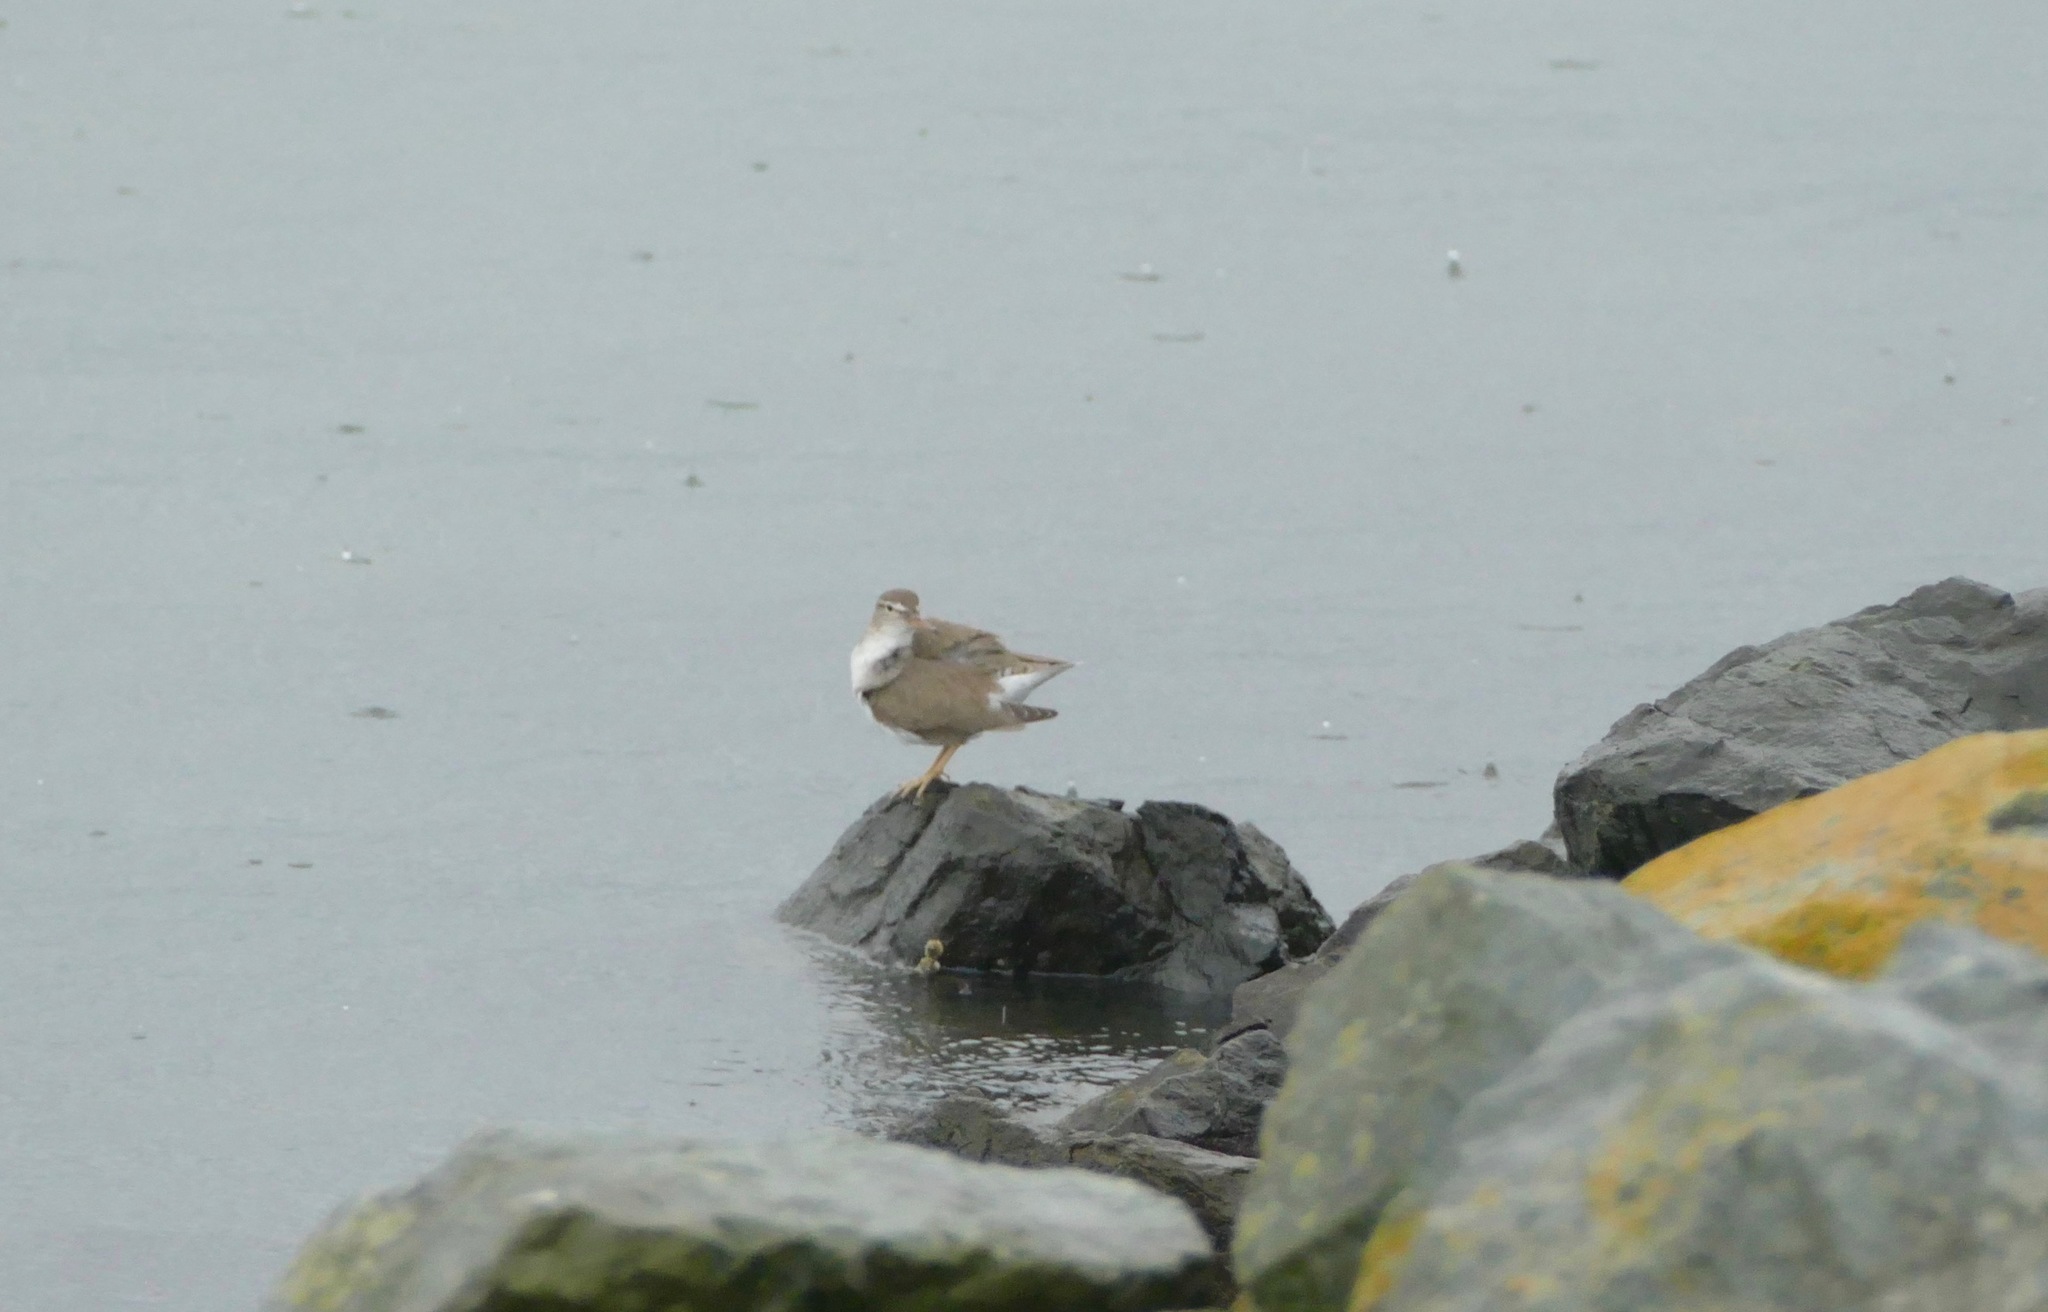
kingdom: Animalia
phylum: Chordata
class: Aves
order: Charadriiformes
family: Scolopacidae
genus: Actitis
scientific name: Actitis macularius
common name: Spotted sandpiper
